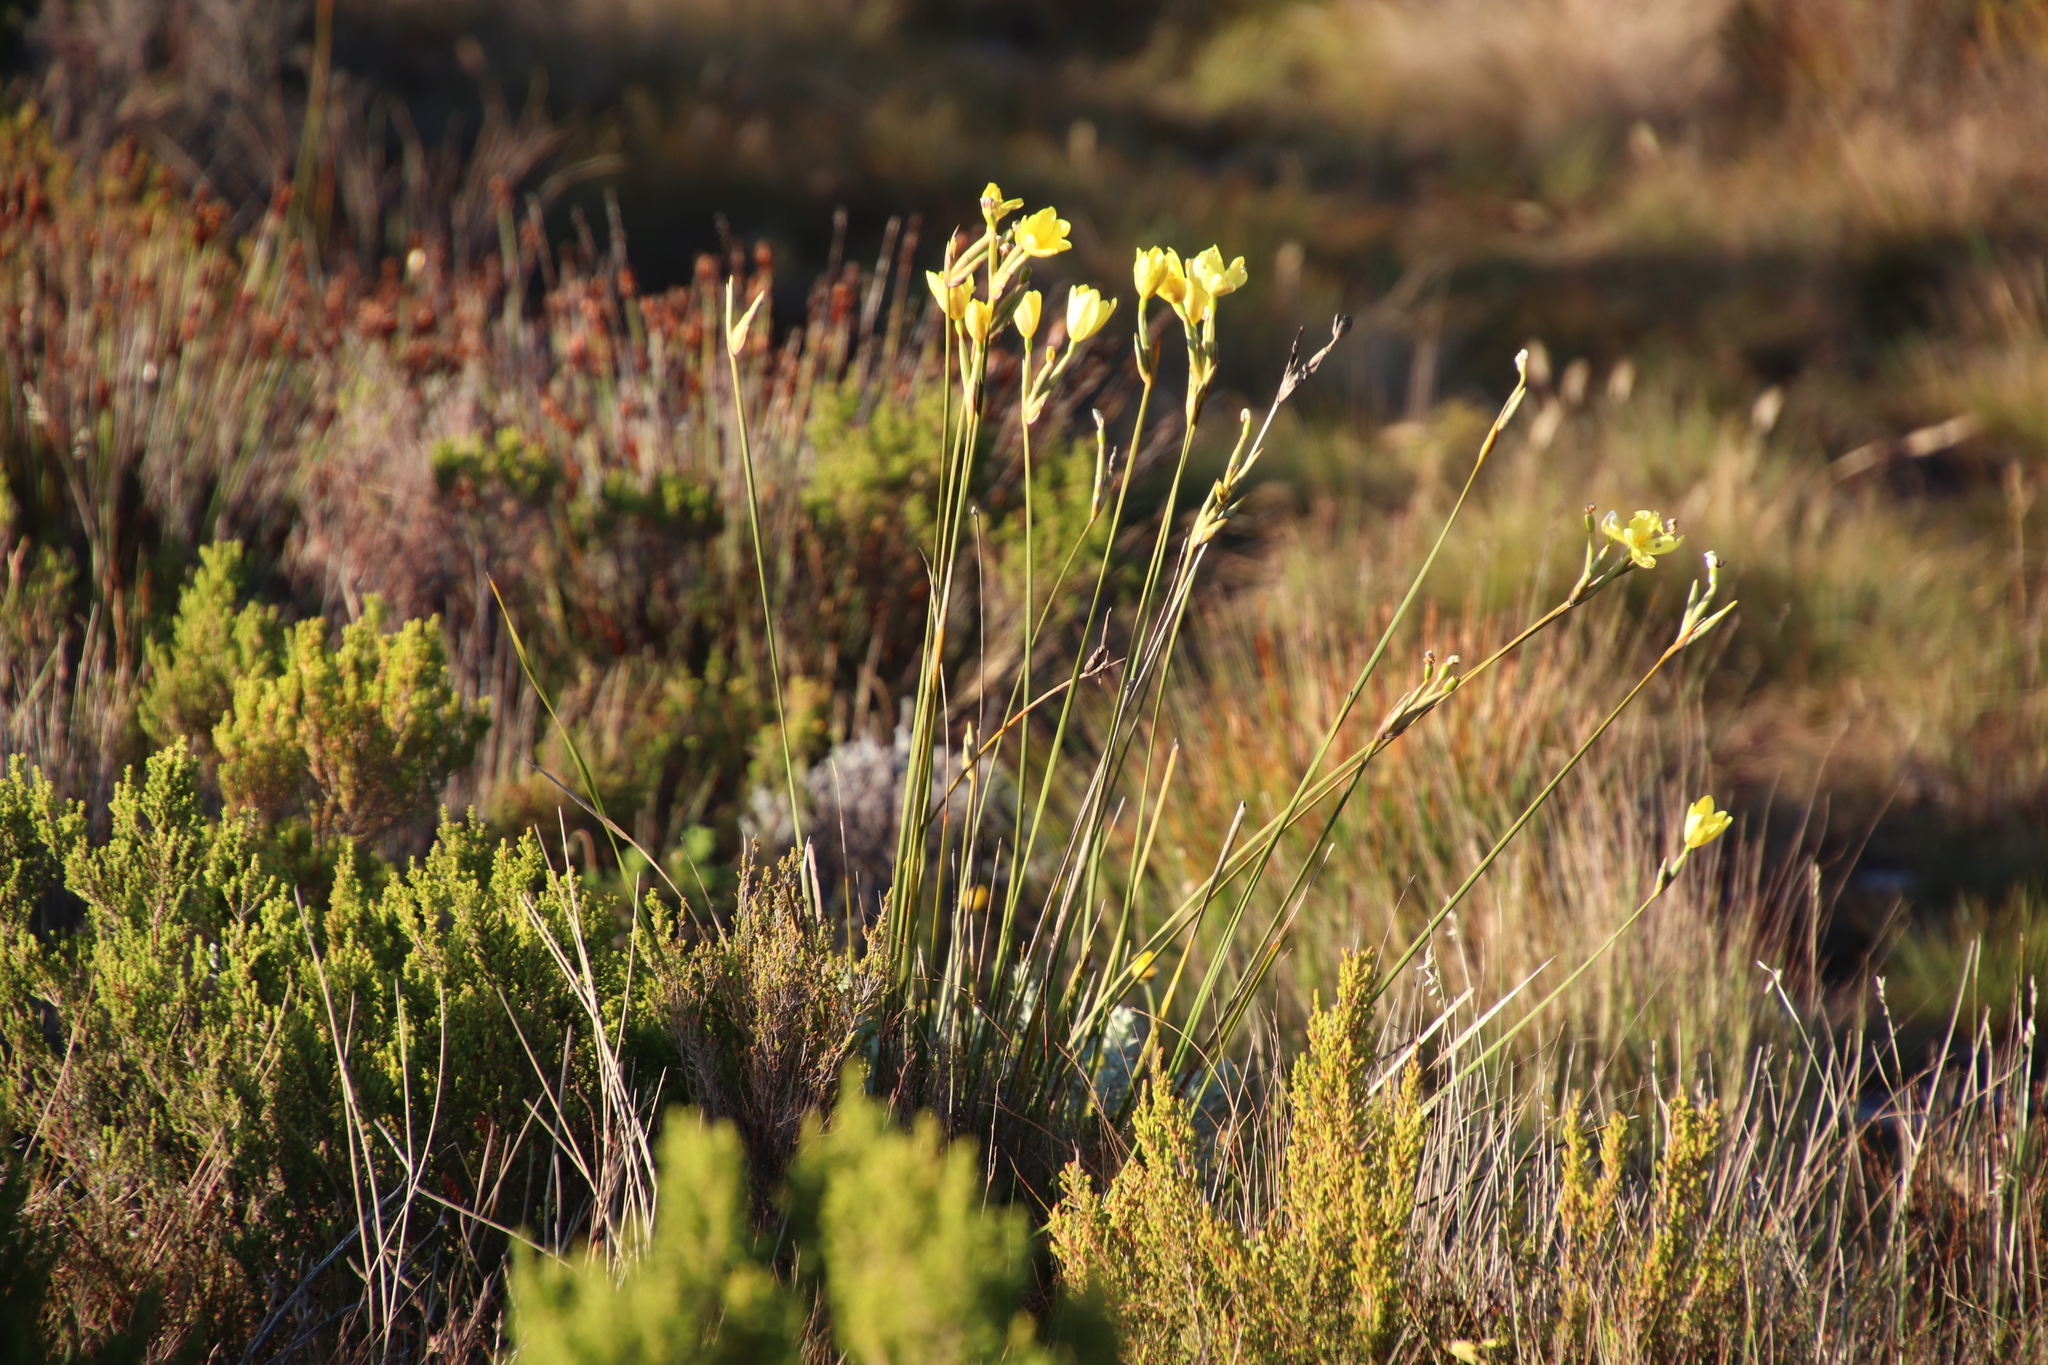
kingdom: Plantae
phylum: Tracheophyta
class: Liliopsida
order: Asparagales
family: Iridaceae
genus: Bobartia
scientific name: Bobartia gladiata
